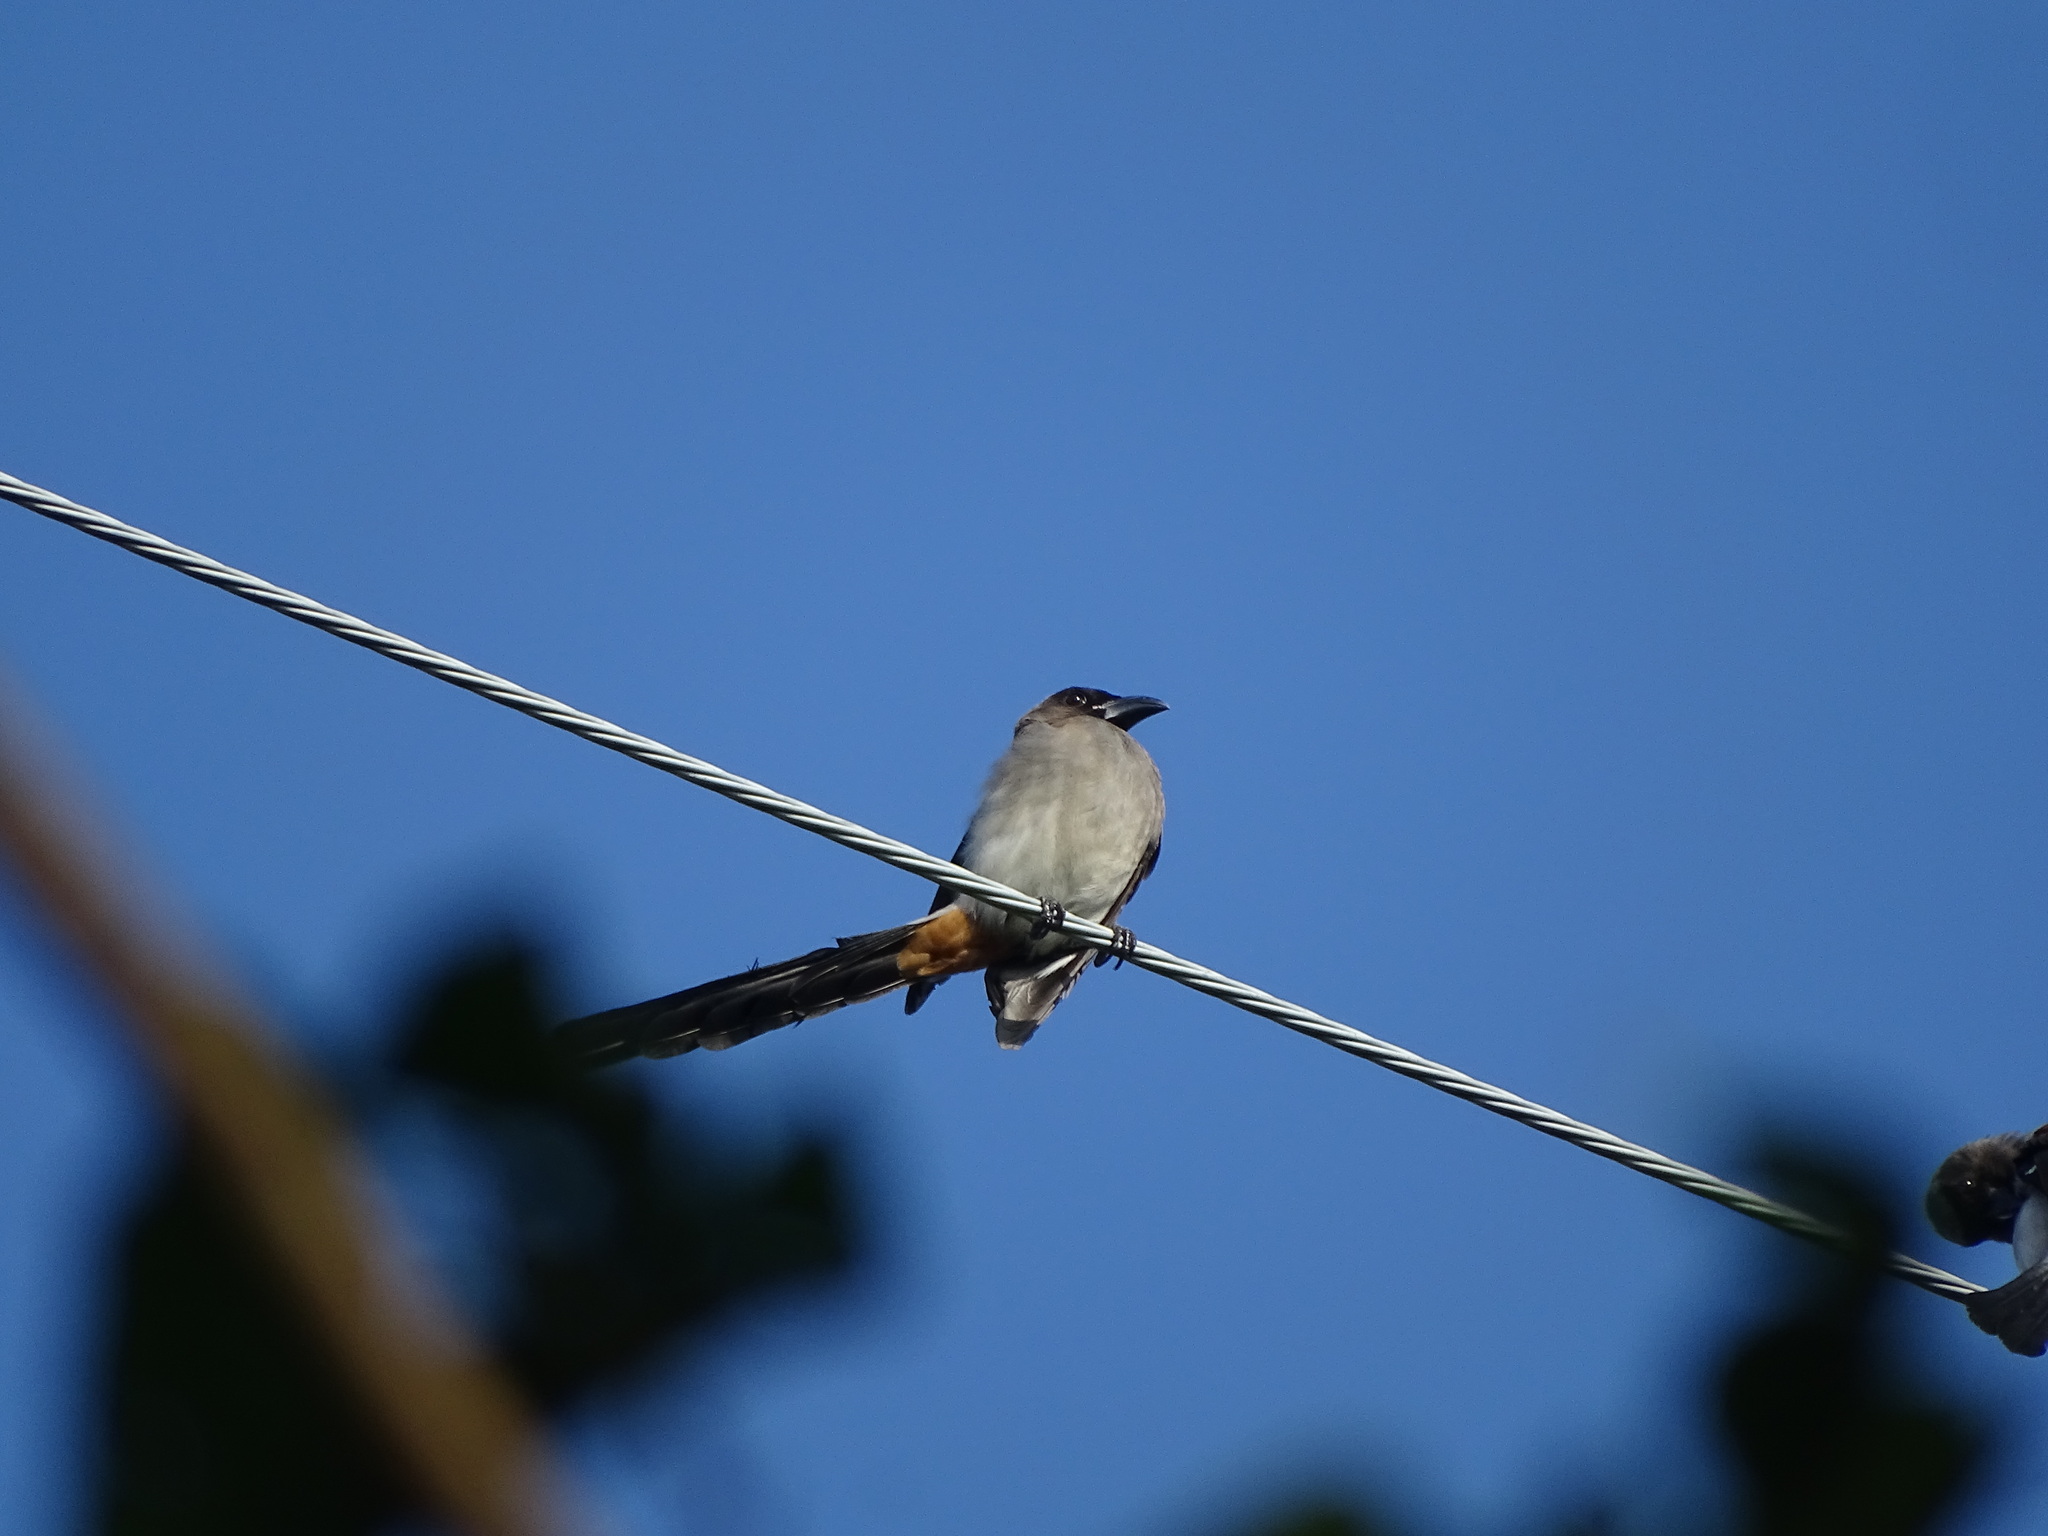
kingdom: Animalia
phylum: Chordata
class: Aves
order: Passeriformes
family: Corvidae
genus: Dendrocitta
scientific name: Dendrocitta formosae
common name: Grey treepie
